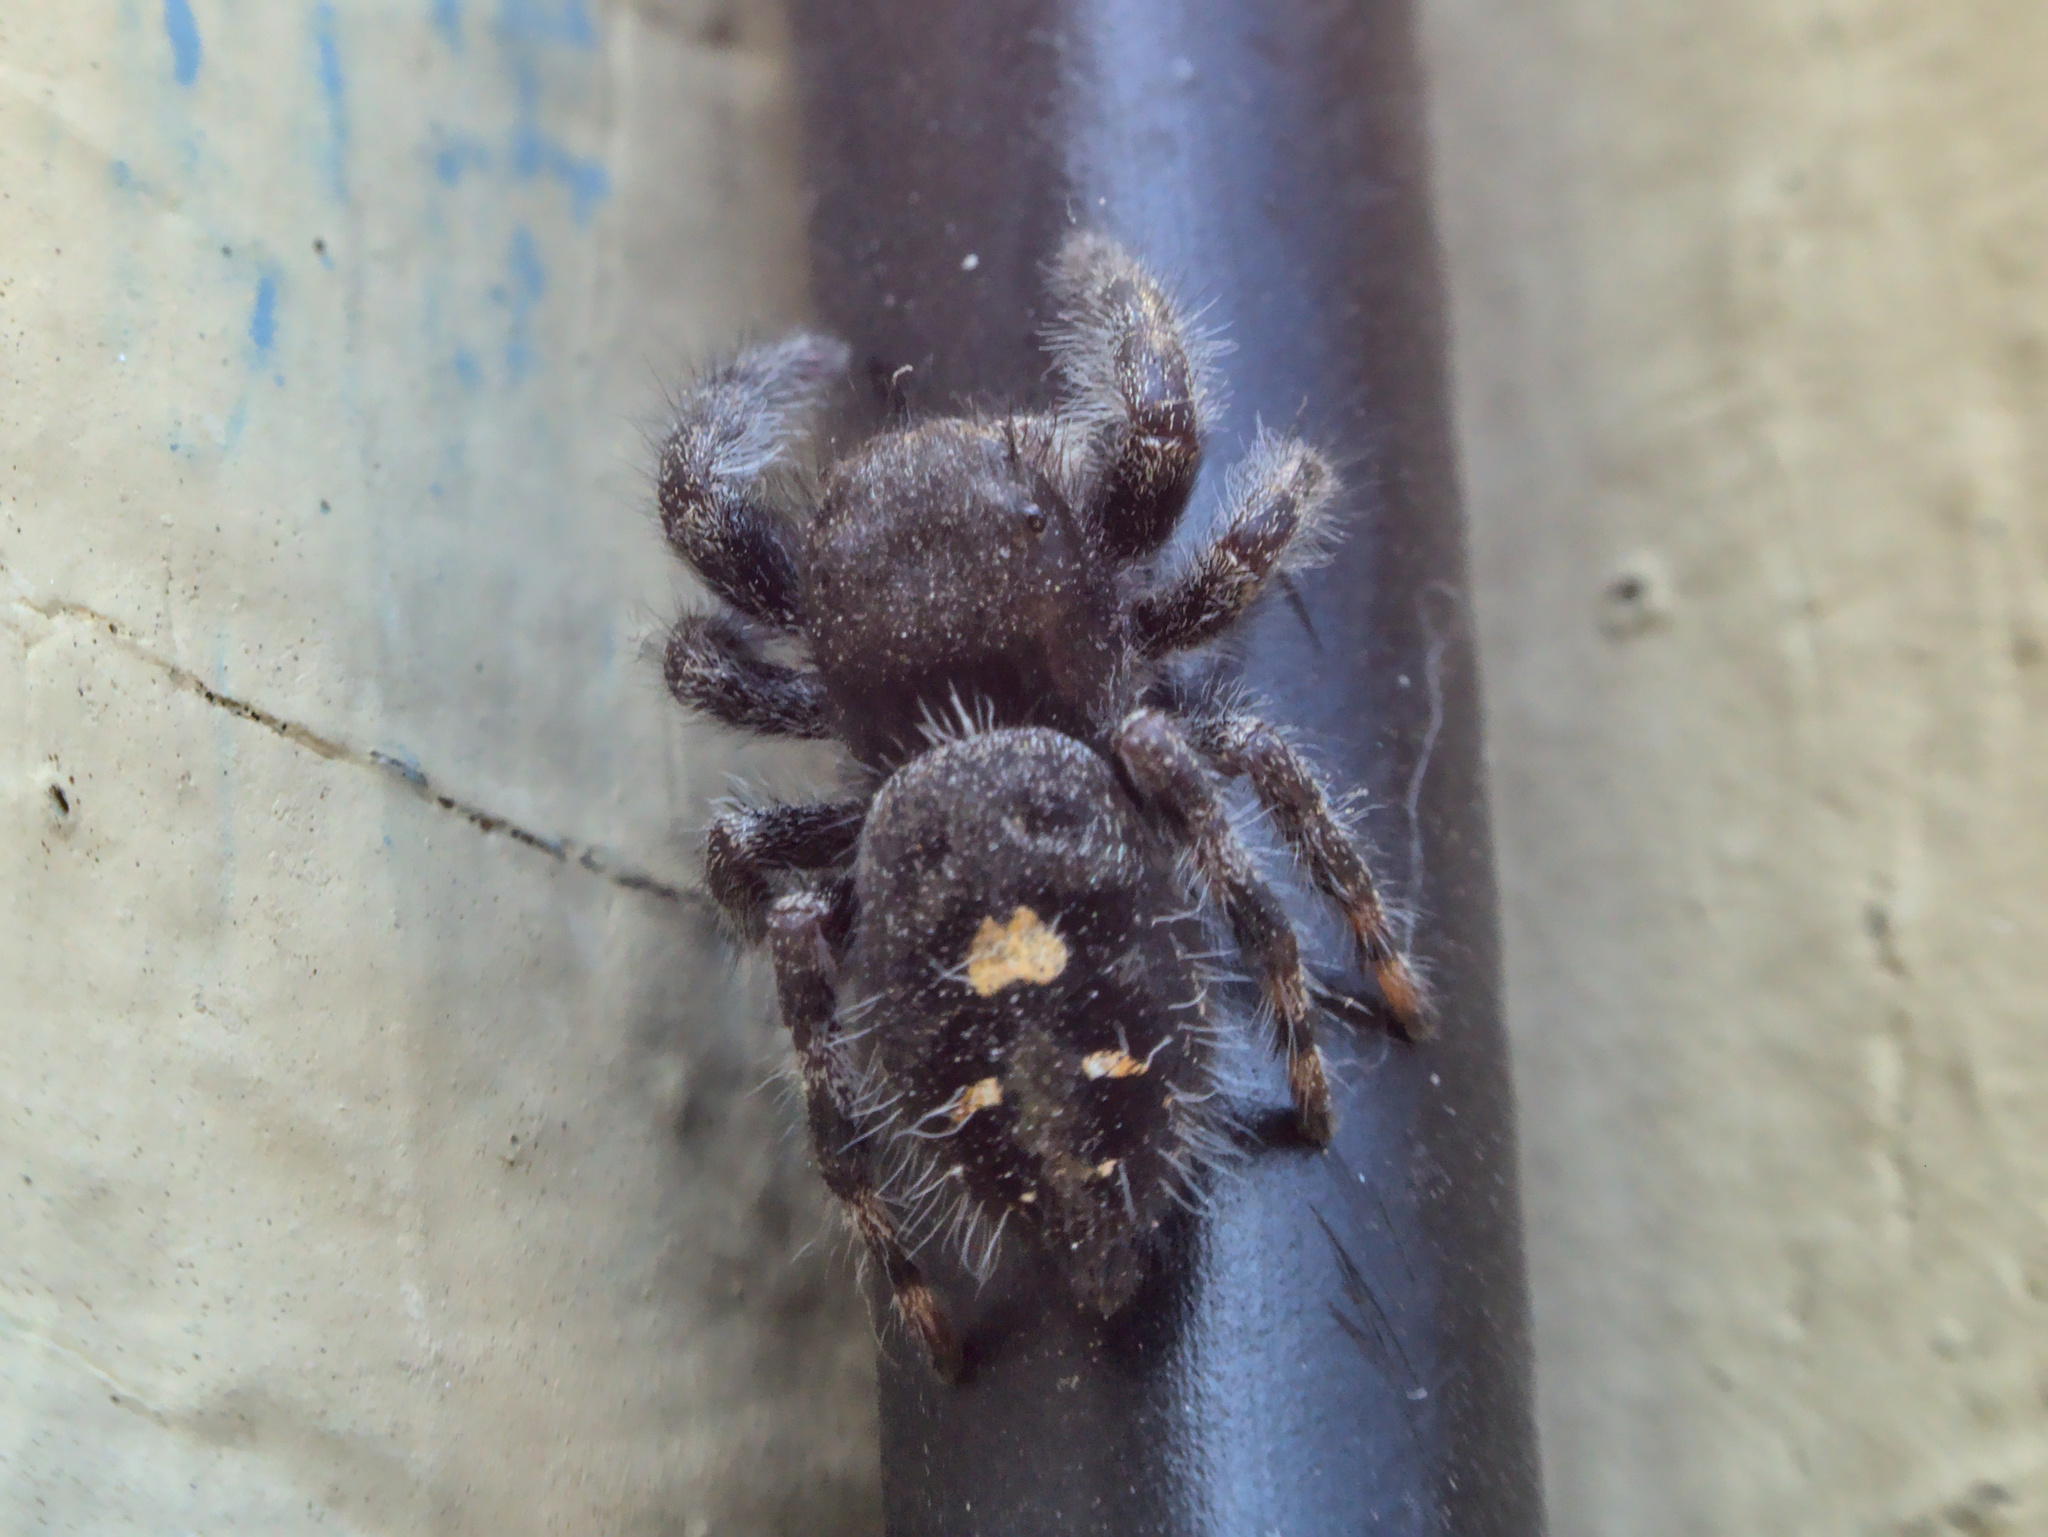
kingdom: Animalia
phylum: Arthropoda
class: Arachnida
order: Araneae
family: Salticidae
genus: Phidippus
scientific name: Phidippus audax
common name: Bold jumper
